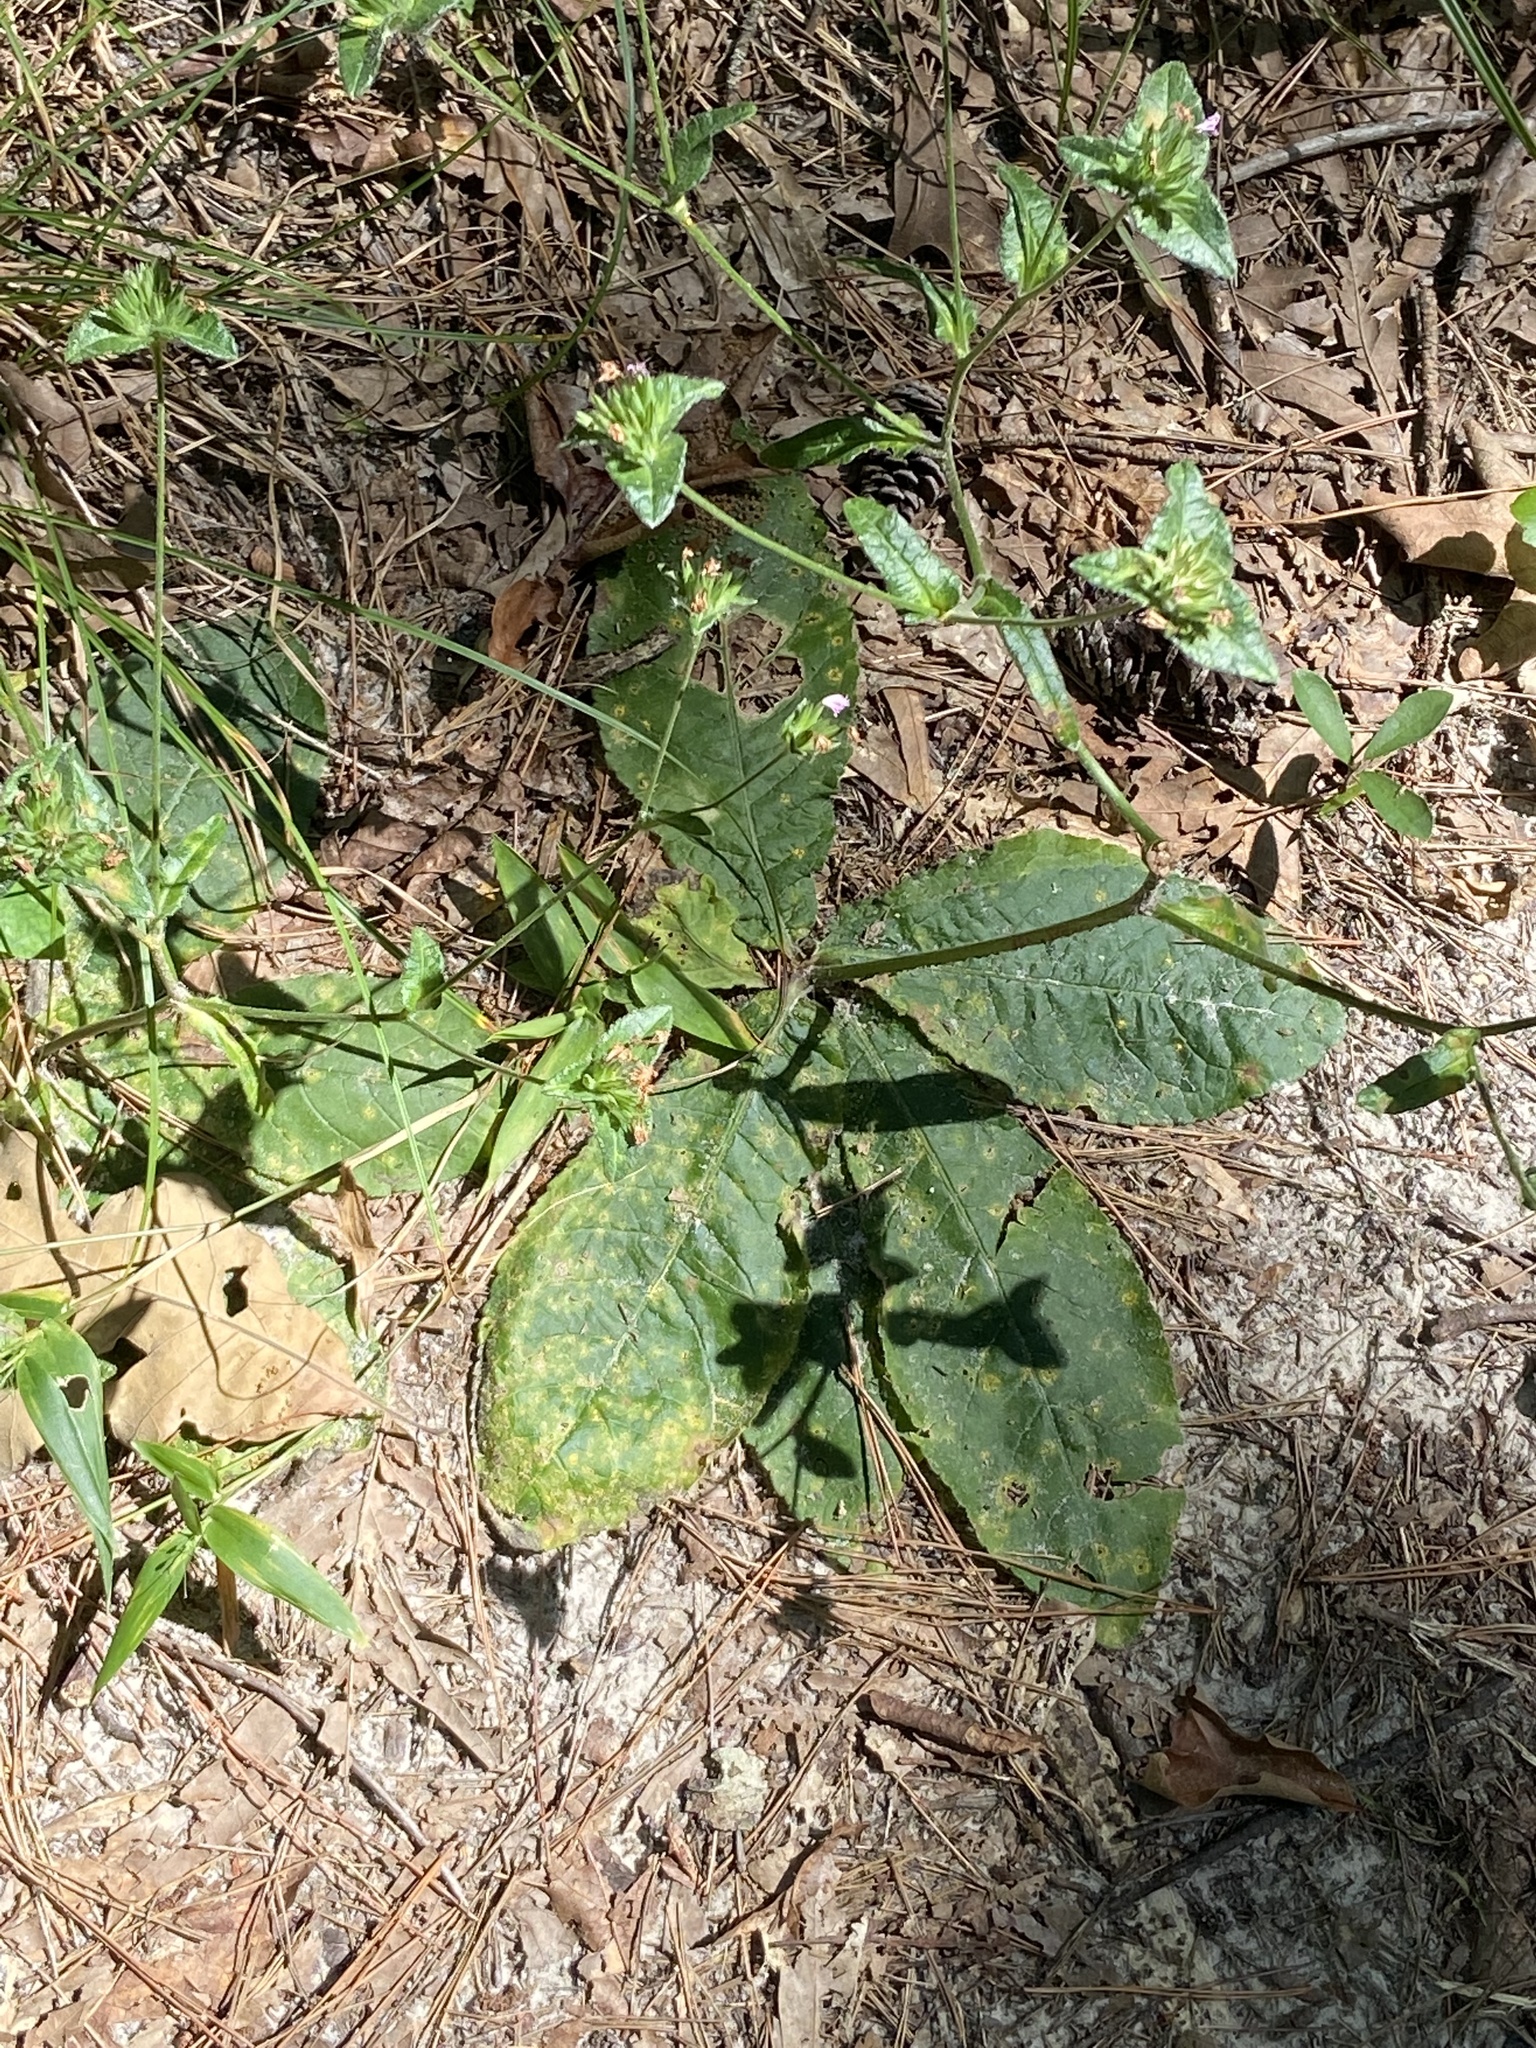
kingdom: Plantae
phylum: Tracheophyta
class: Magnoliopsida
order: Asterales
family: Asteraceae
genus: Elephantopus
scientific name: Elephantopus tomentosus
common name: Tobacco-weed
